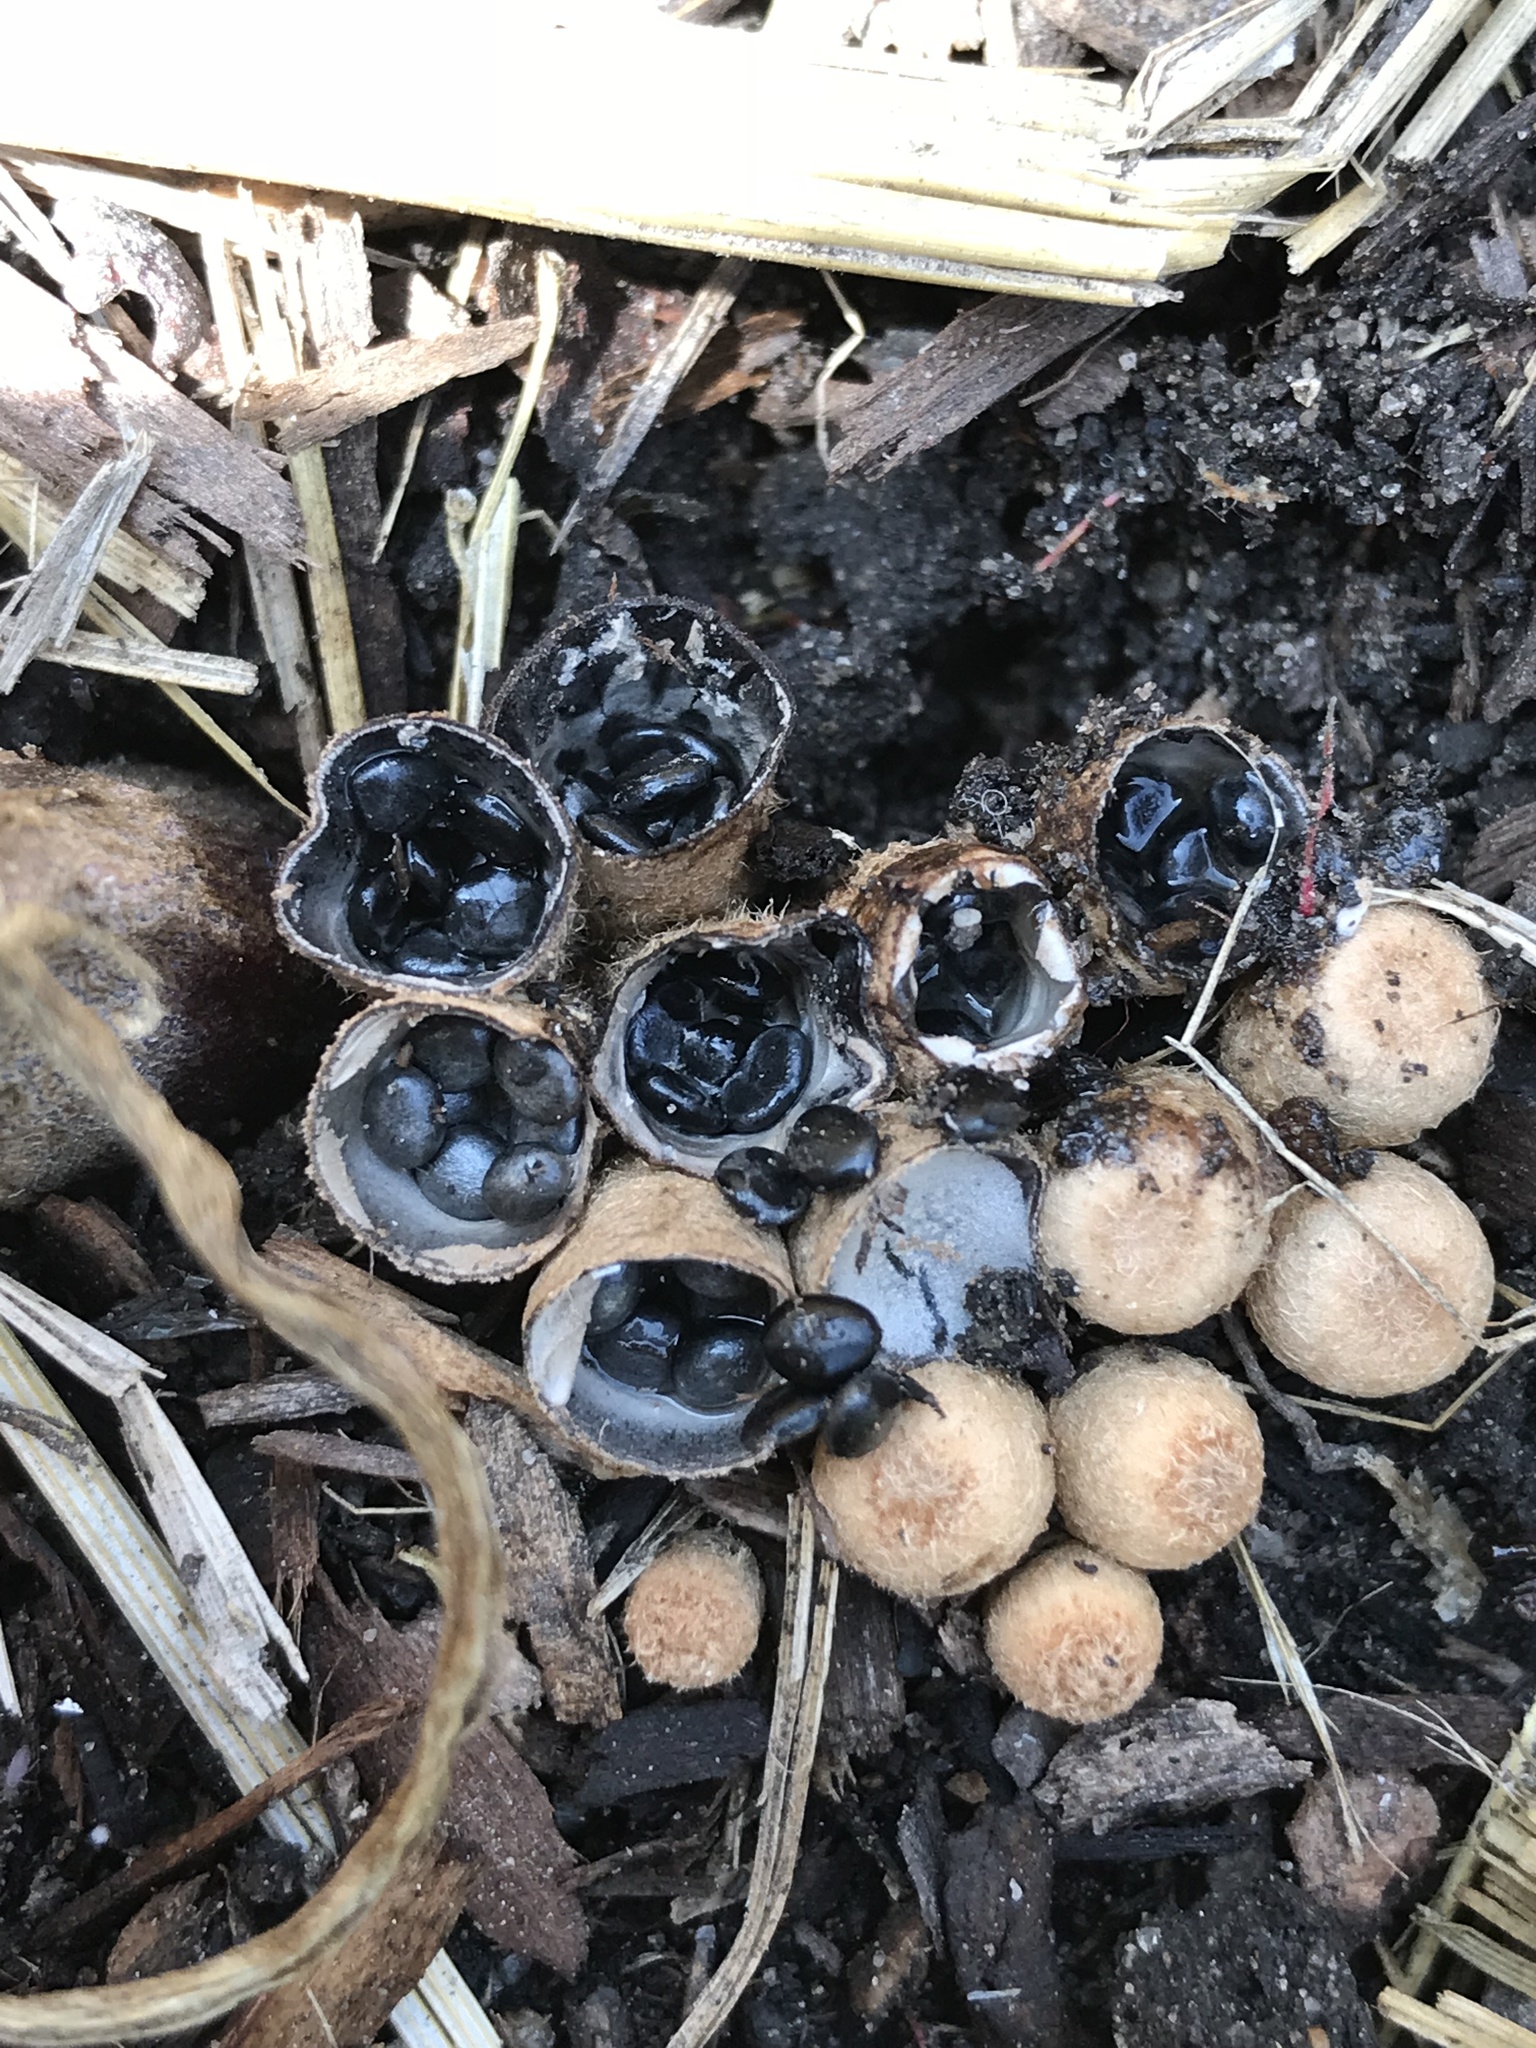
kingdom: Fungi
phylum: Basidiomycota
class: Agaricomycetes
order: Agaricales
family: Agaricaceae
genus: Cyathus
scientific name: Cyathus stercoreus
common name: Dung bird's nest
